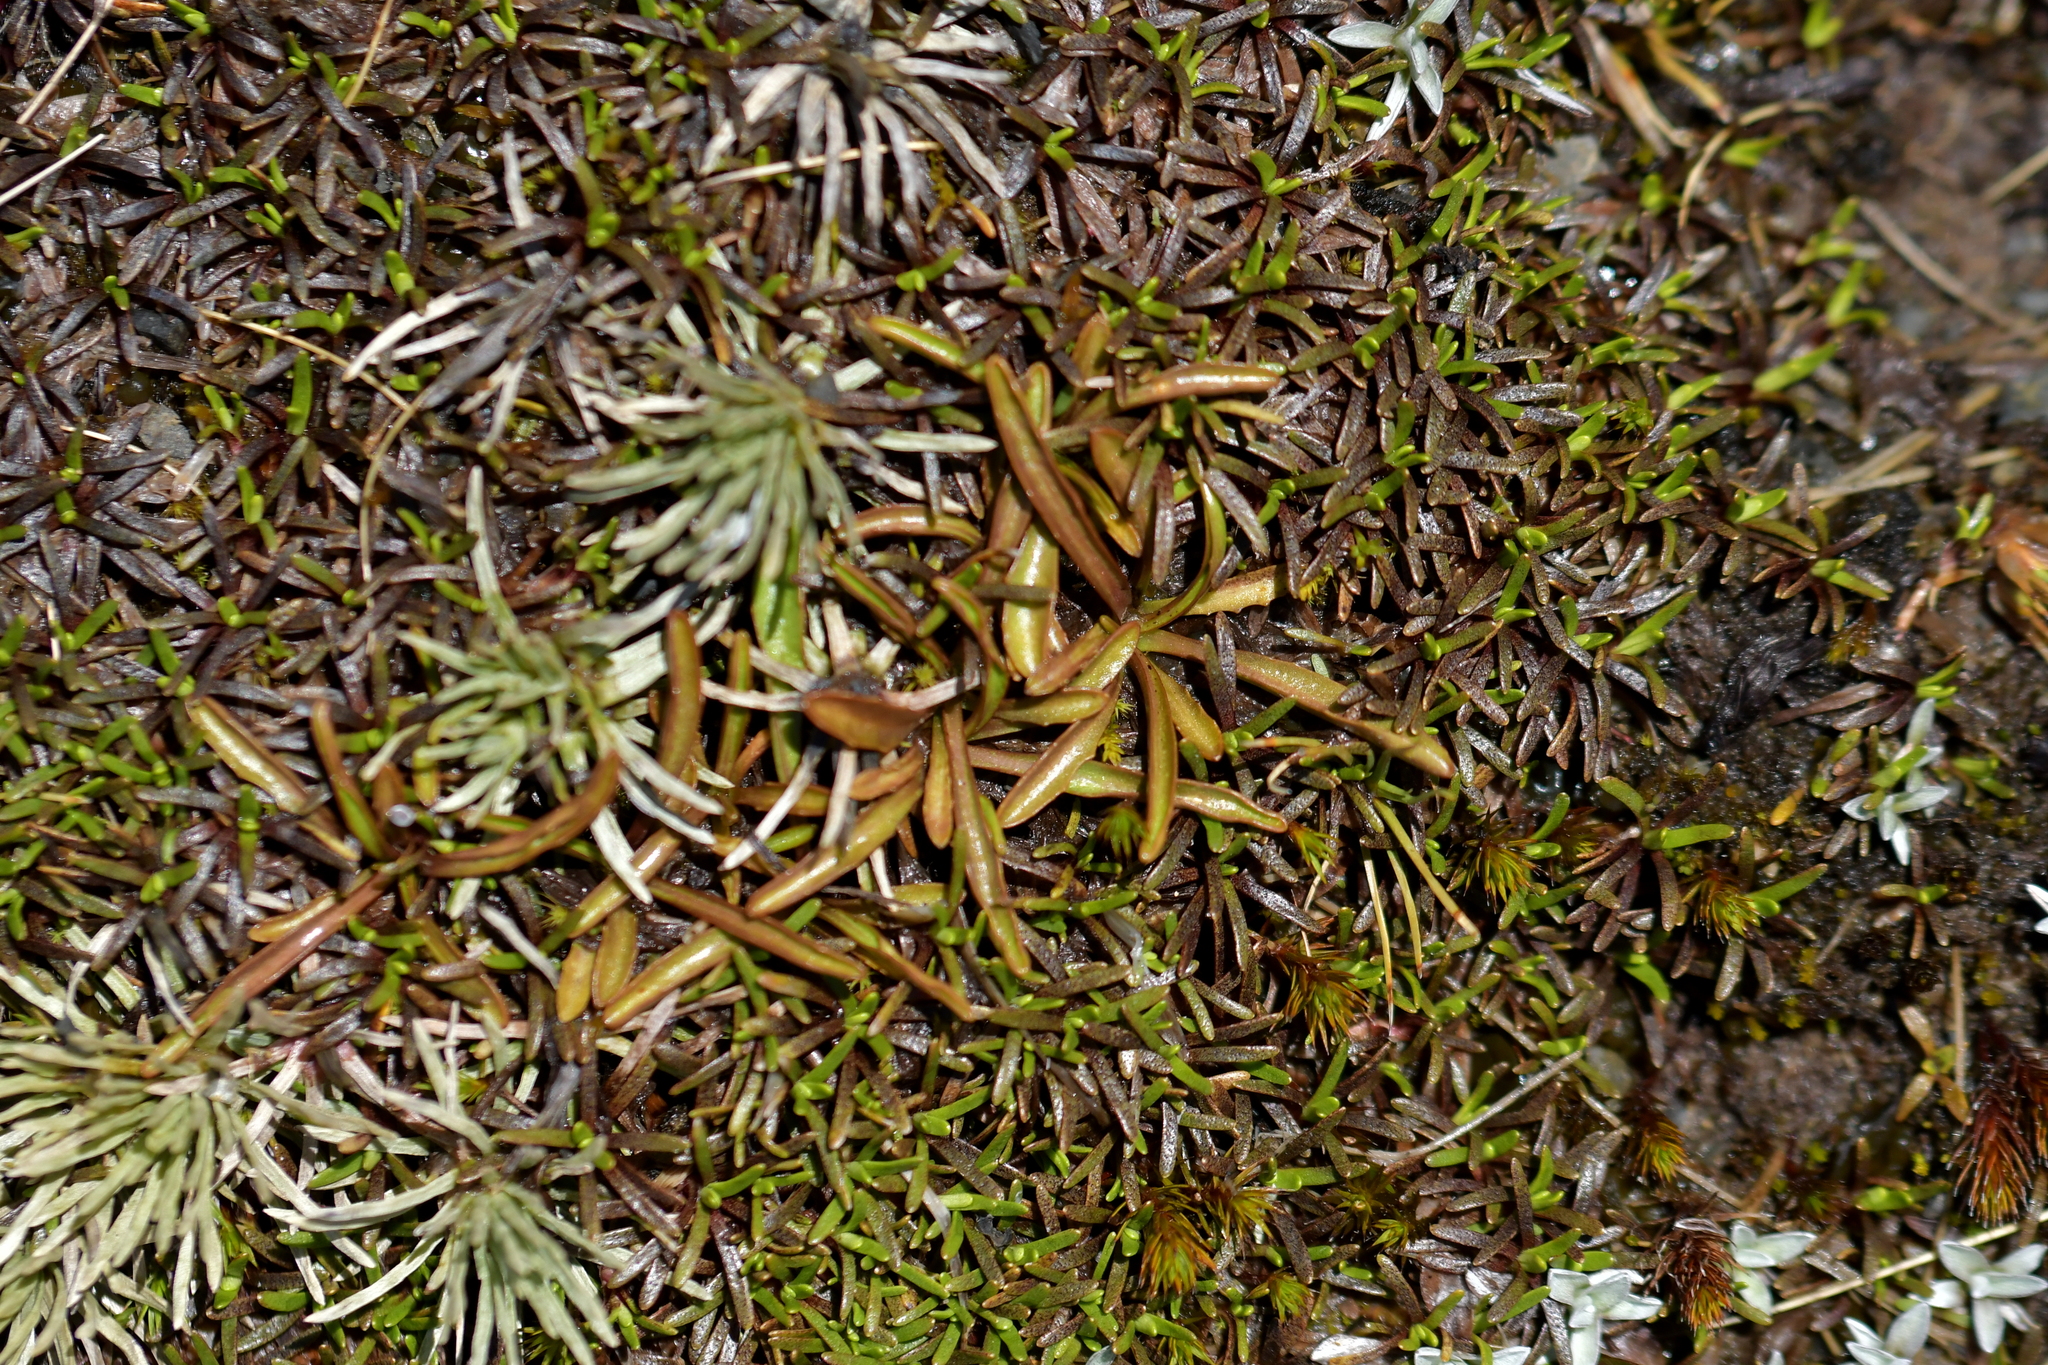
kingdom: Plantae
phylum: Tracheophyta
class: Magnoliopsida
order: Asterales
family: Asteraceae
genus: Microseris
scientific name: Microseris scapigera
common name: Yam daisy
